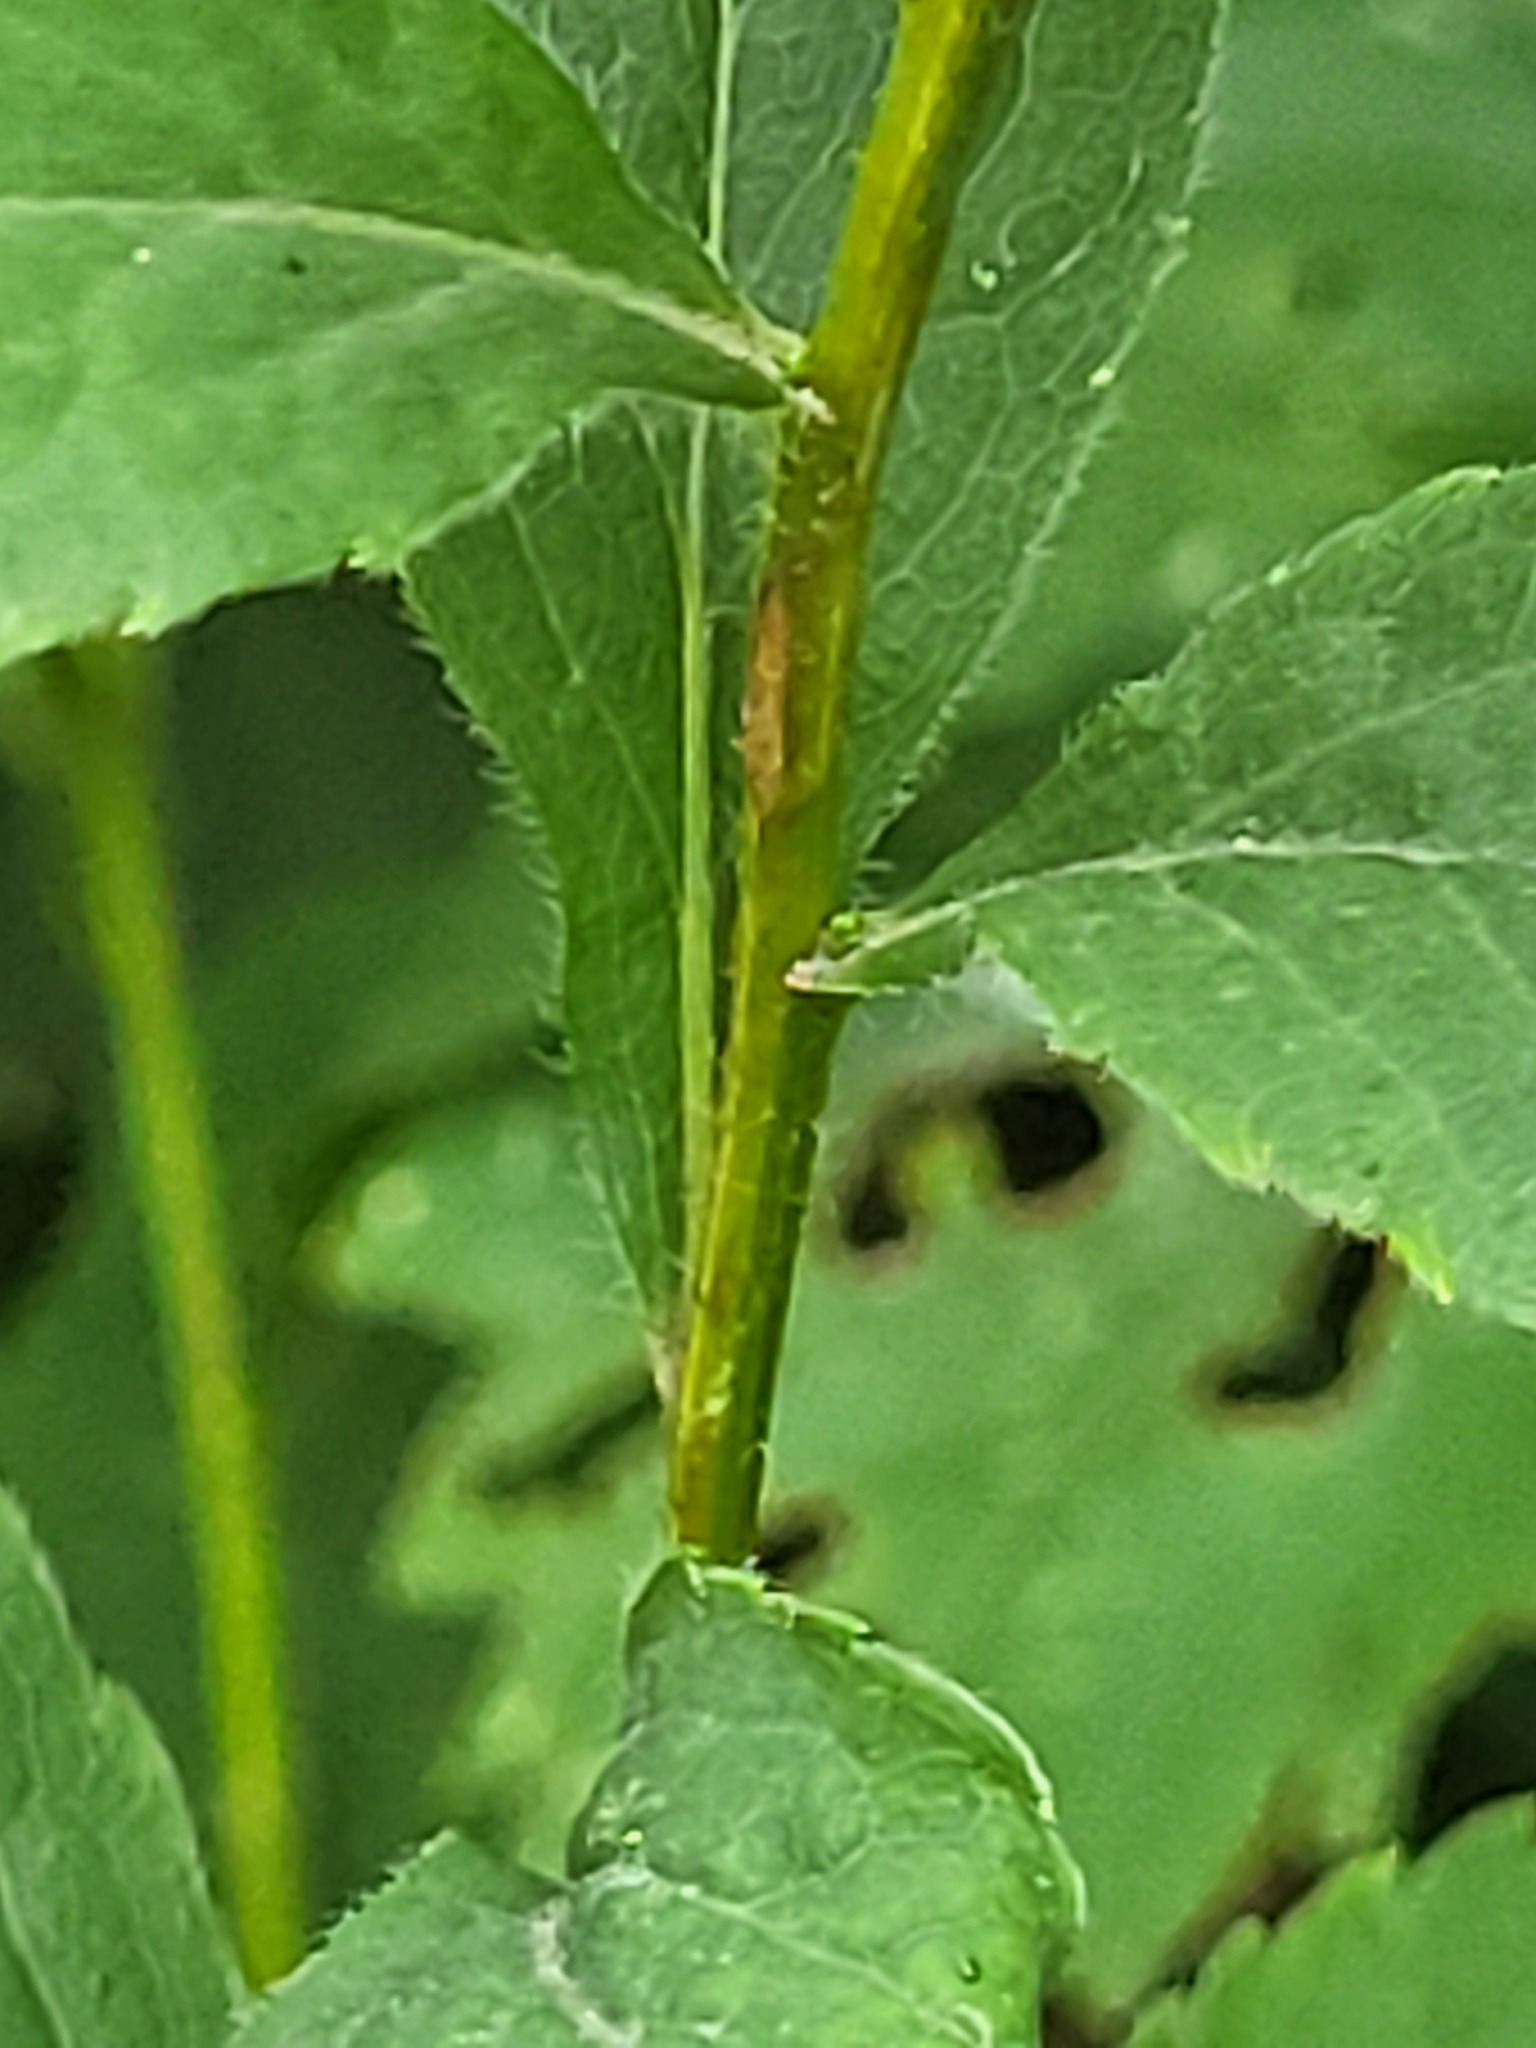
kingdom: Plantae
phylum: Tracheophyta
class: Magnoliopsida
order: Asterales
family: Asteraceae
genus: Solidago
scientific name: Solidago ulmifolia
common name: Elm-leaf goldenrod
